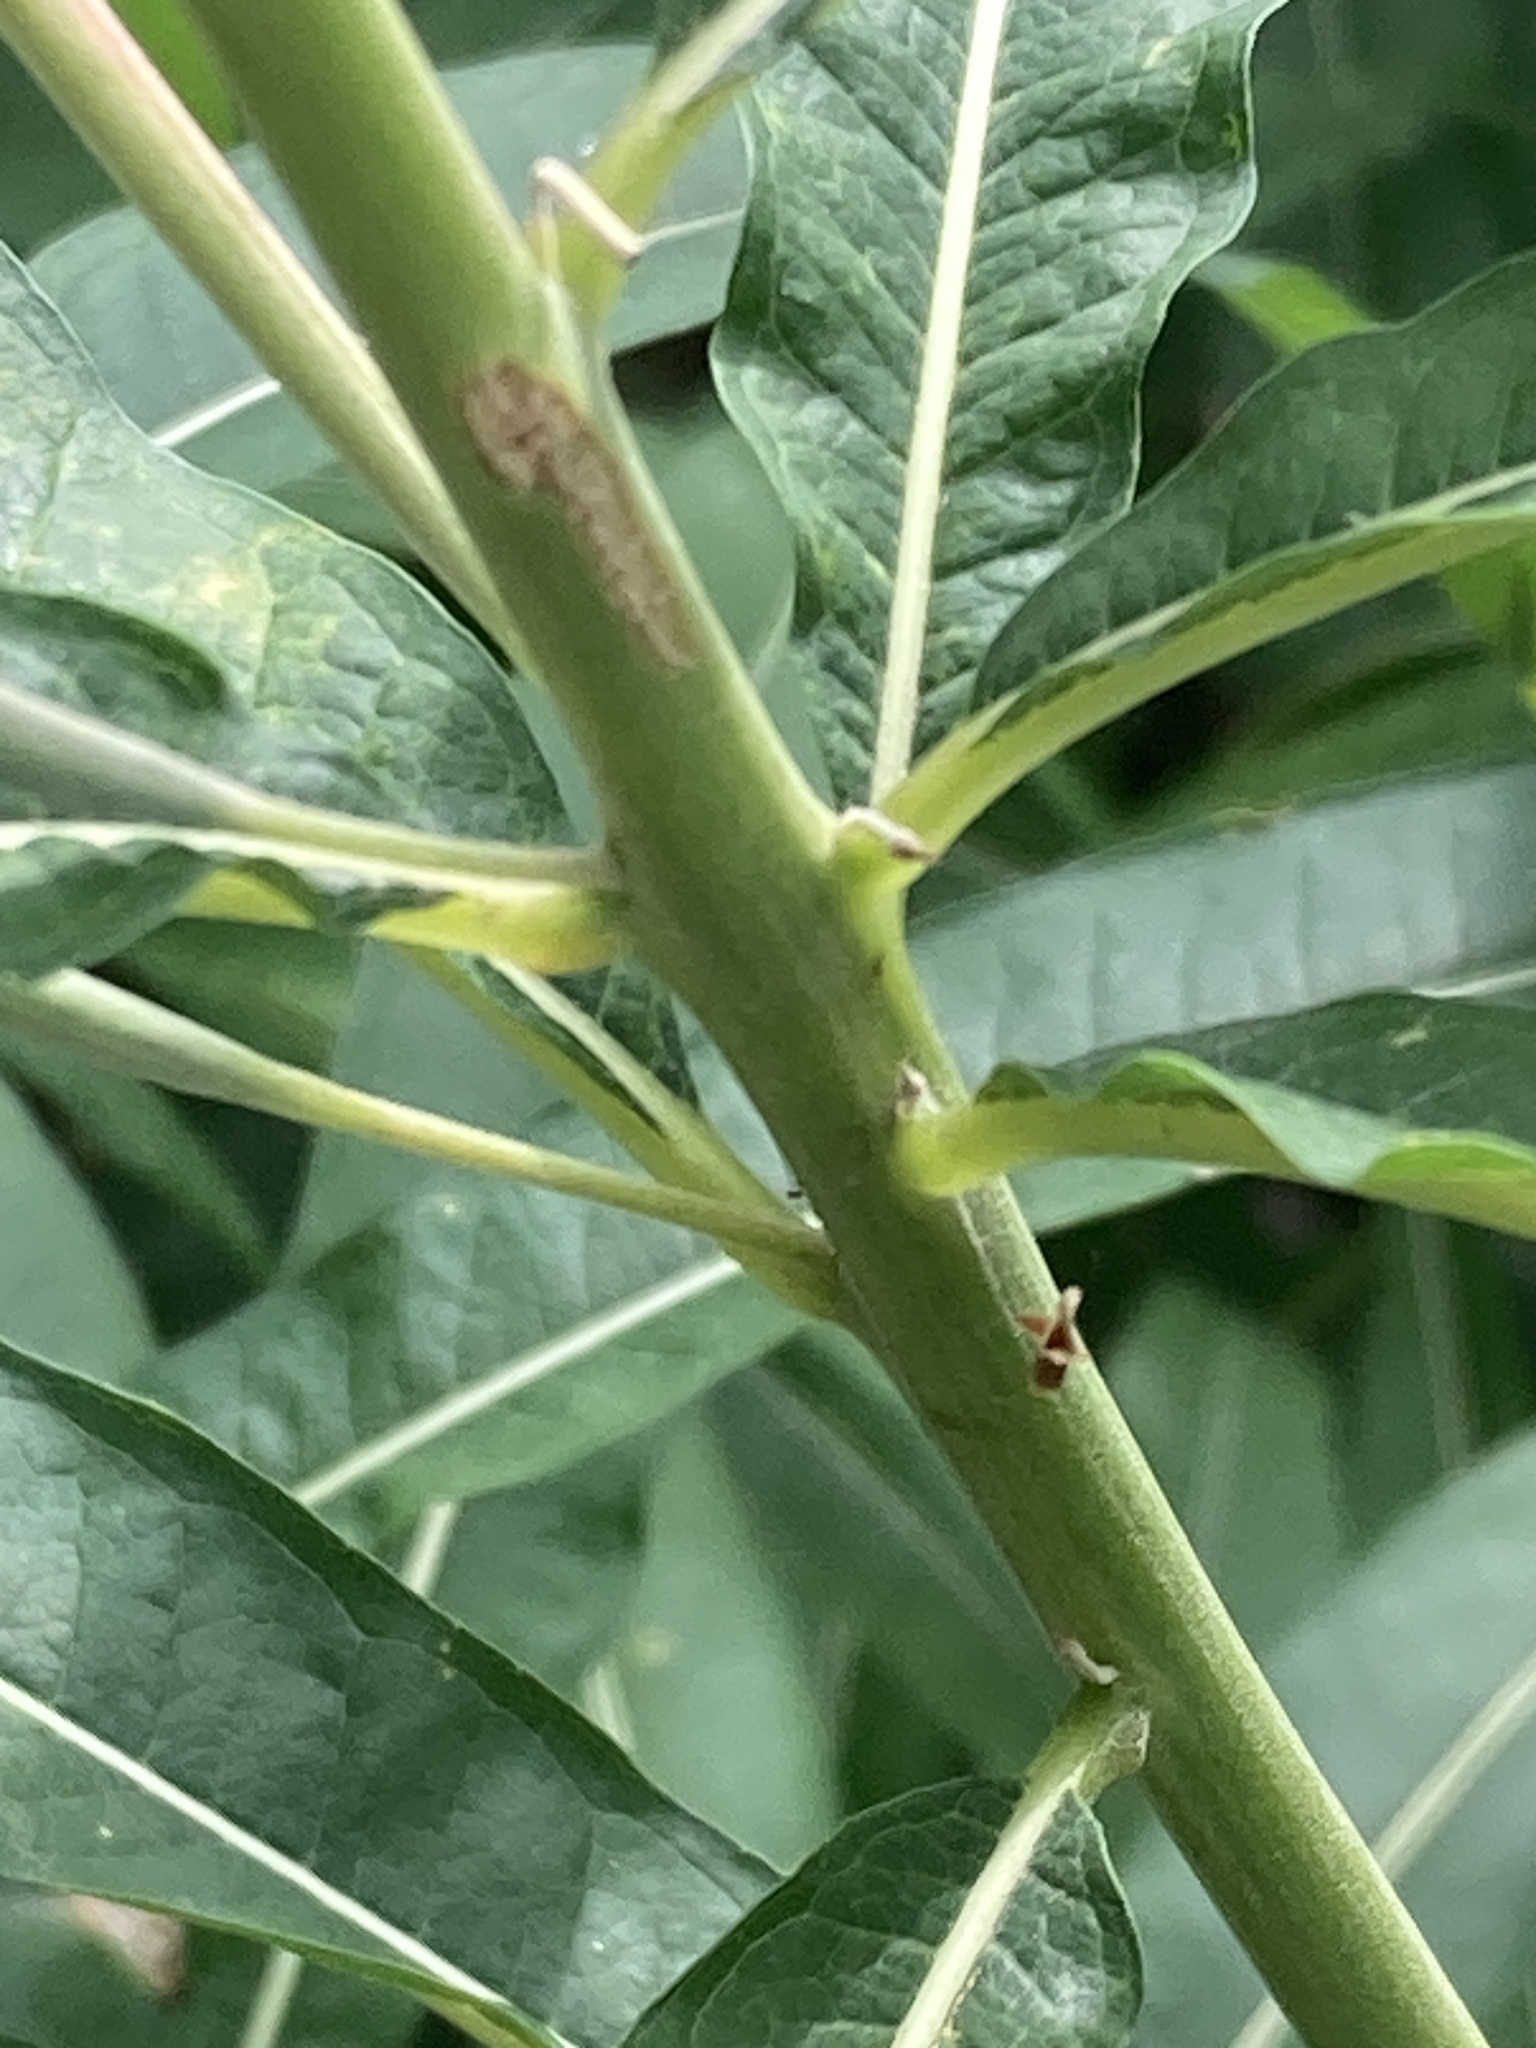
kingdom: Plantae
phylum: Tracheophyta
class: Magnoliopsida
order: Myrtales
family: Onagraceae
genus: Chamaenerion
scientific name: Chamaenerion angustifolium
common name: Fireweed
